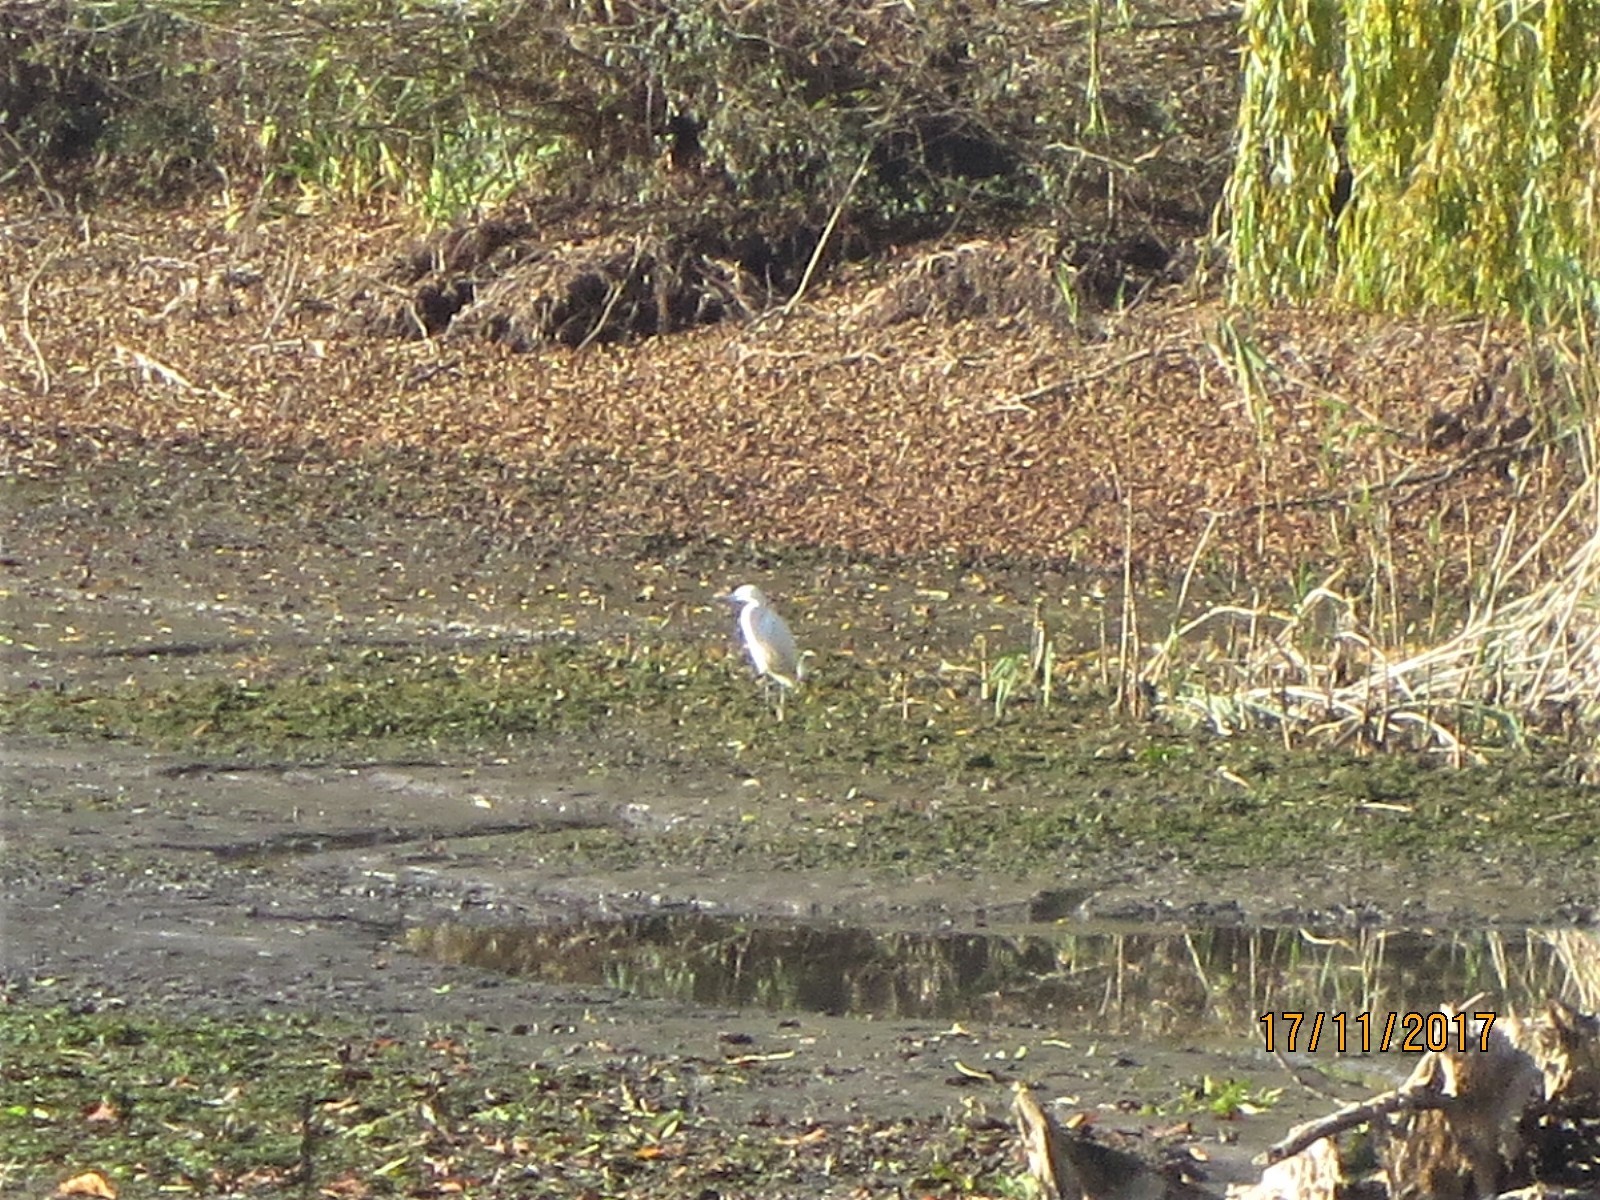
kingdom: Animalia
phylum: Chordata
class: Aves
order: Pelecaniformes
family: Ardeidae
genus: Egretta
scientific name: Egretta garzetta
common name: Little egret
